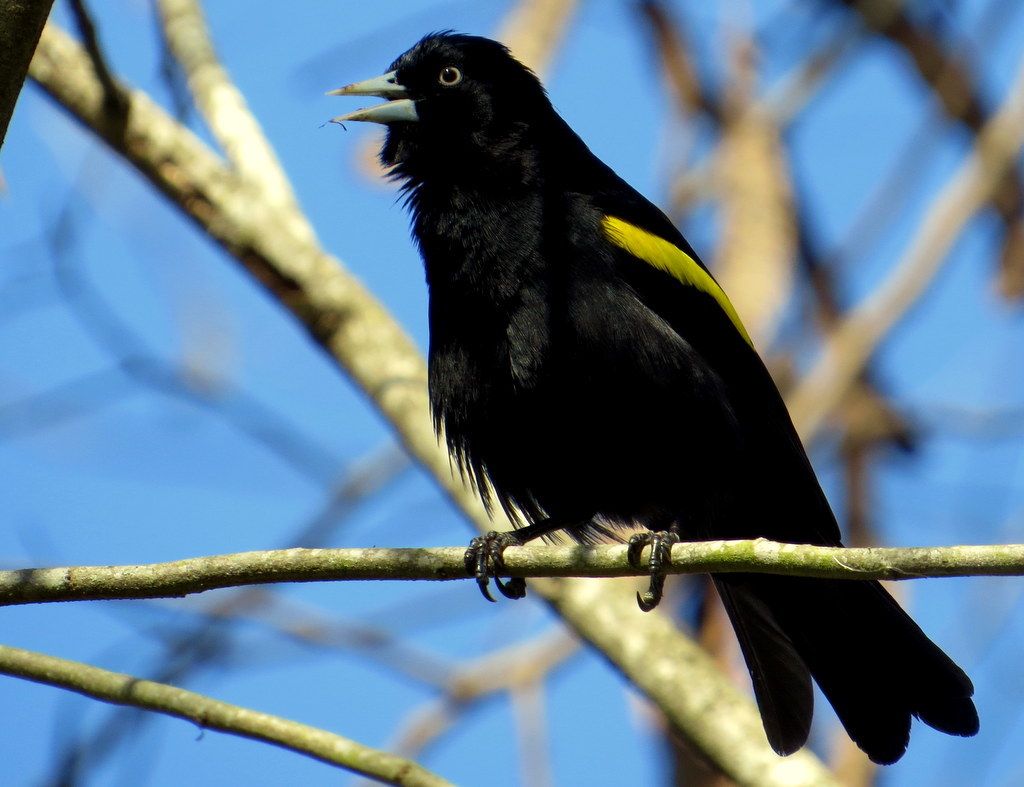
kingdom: Animalia
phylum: Chordata
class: Aves
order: Passeriformes
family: Icteridae
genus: Cacicus
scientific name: Cacicus chrysopterus
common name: Golden-winged cacique
